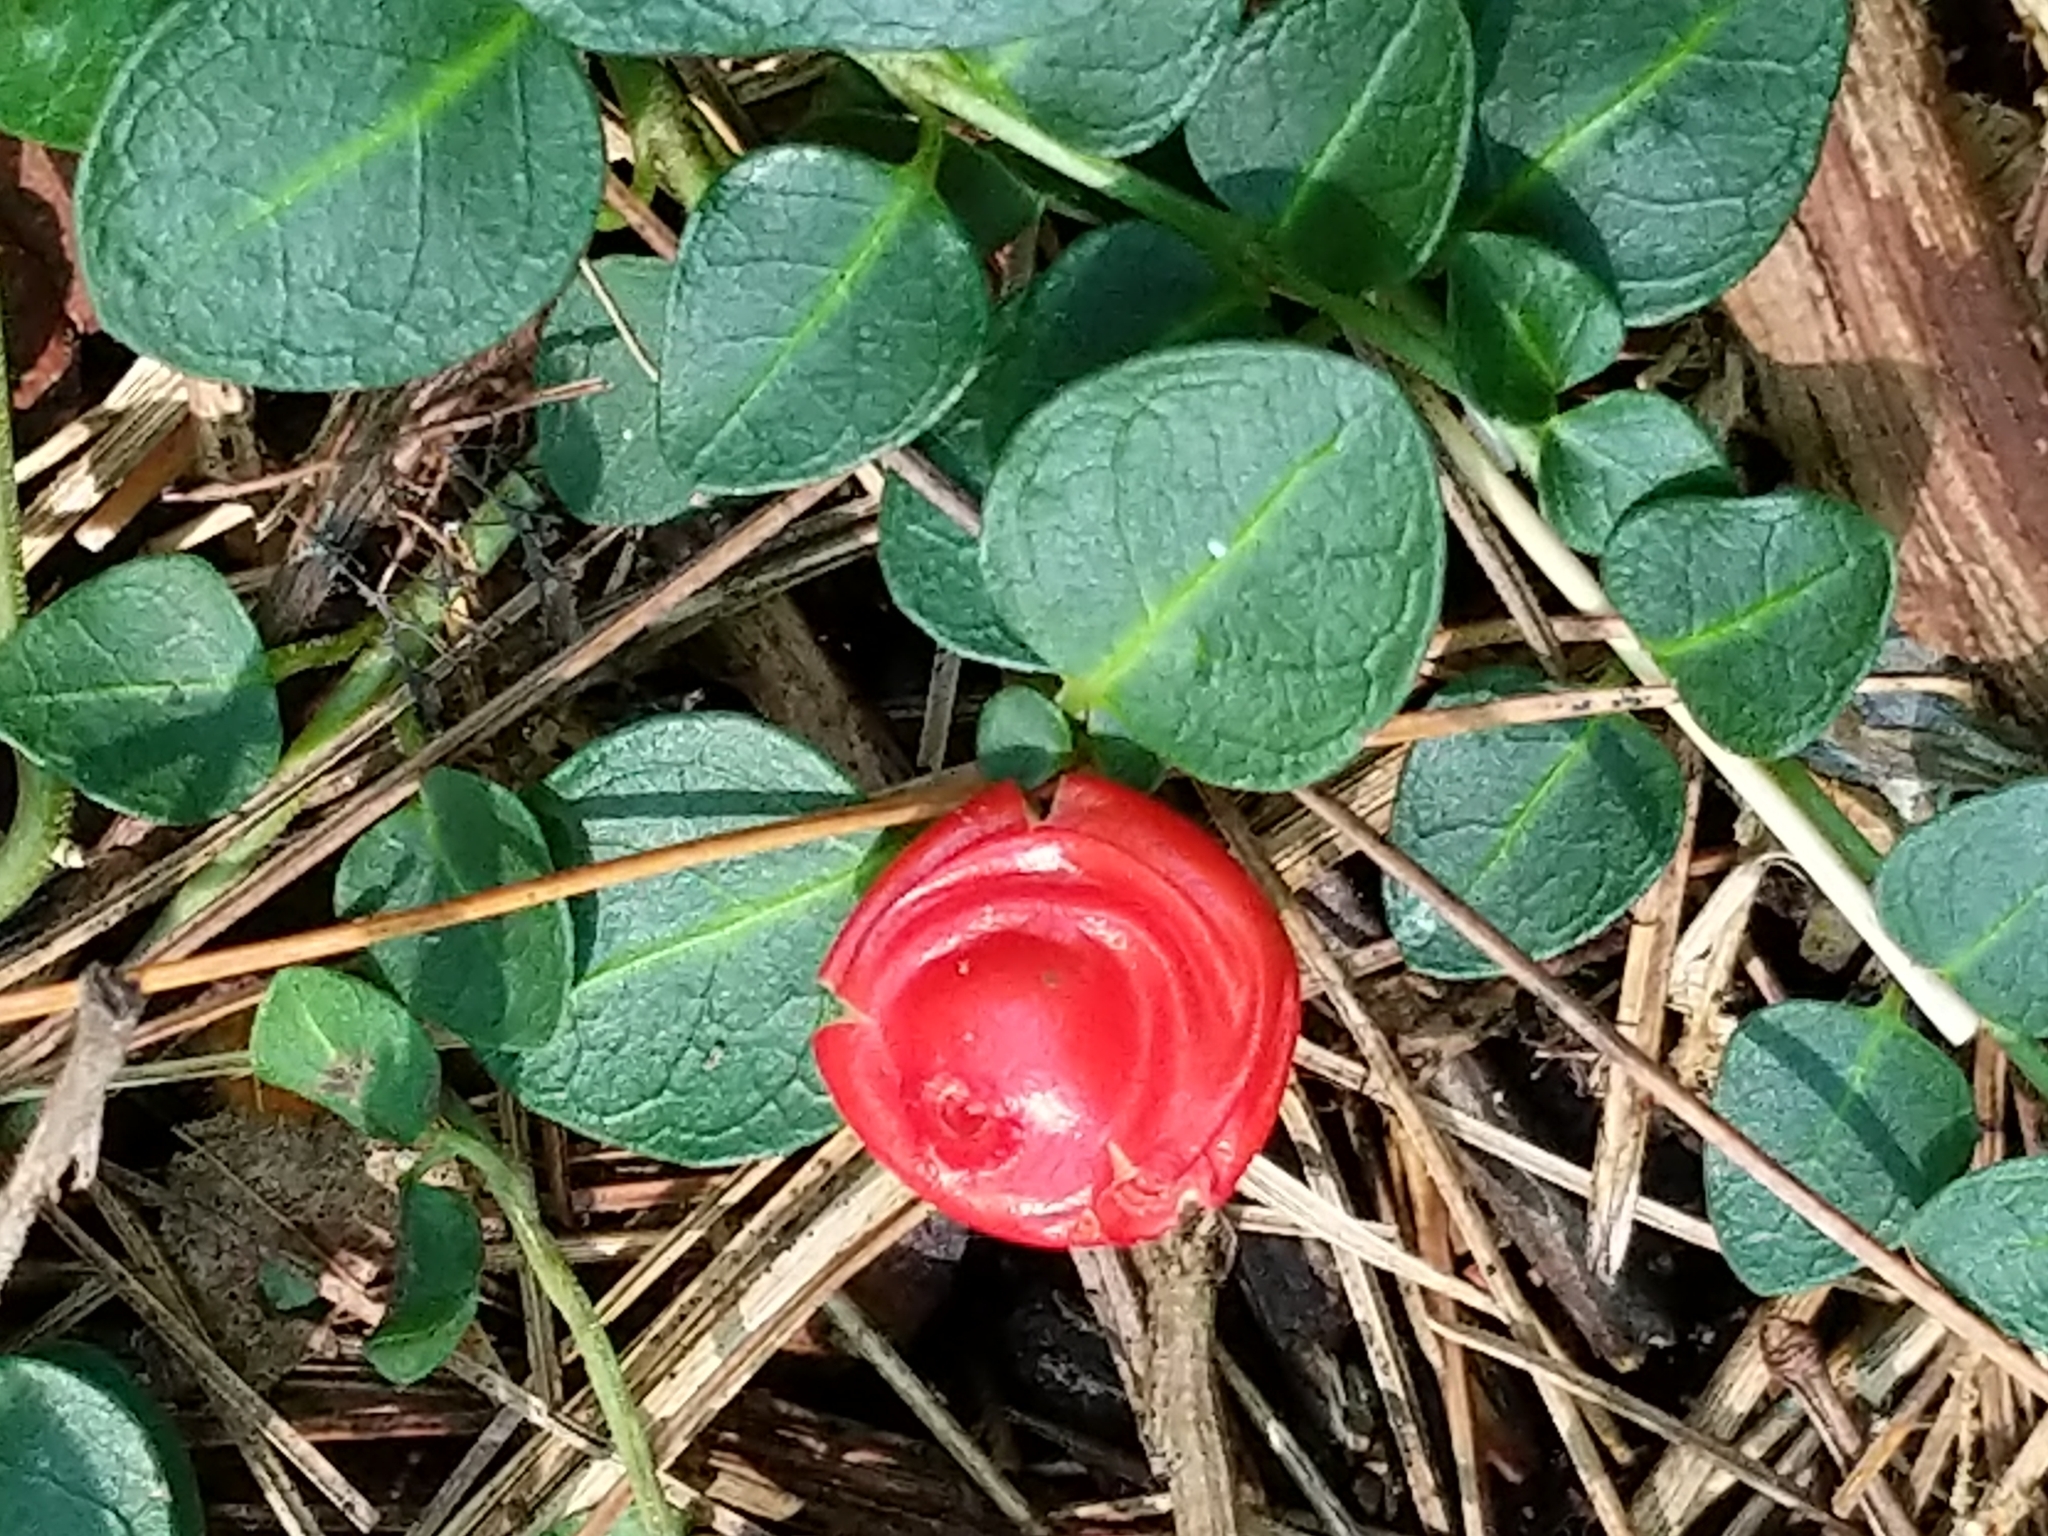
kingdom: Plantae
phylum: Tracheophyta
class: Magnoliopsida
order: Gentianales
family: Rubiaceae
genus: Mitchella
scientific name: Mitchella repens
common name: Partridge-berry
